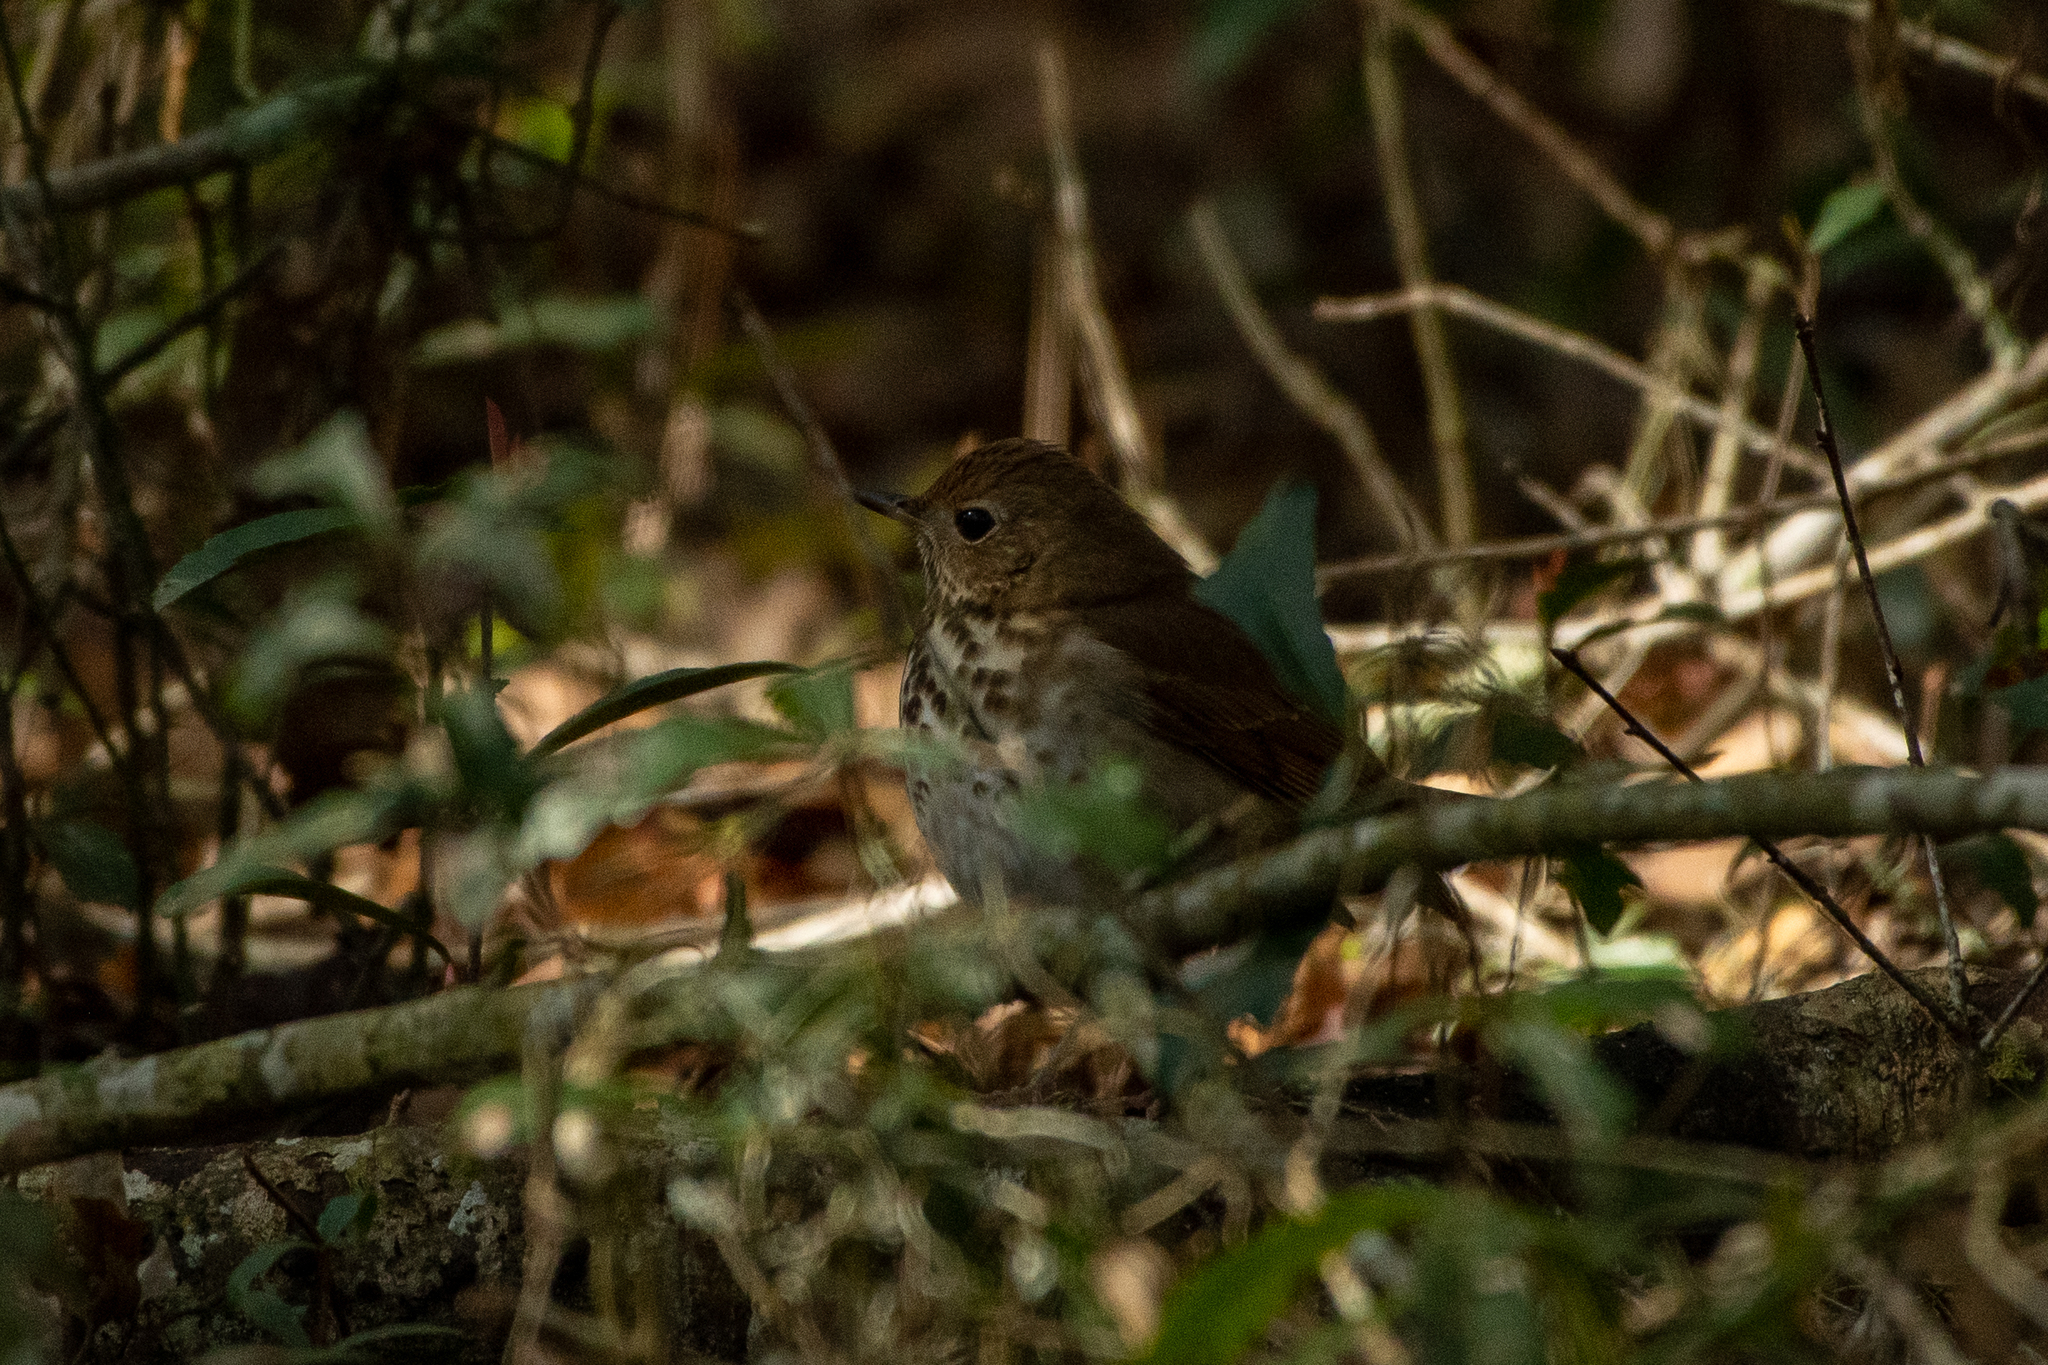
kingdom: Animalia
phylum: Chordata
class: Aves
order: Passeriformes
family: Turdidae
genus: Catharus
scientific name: Catharus guttatus
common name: Hermit thrush
